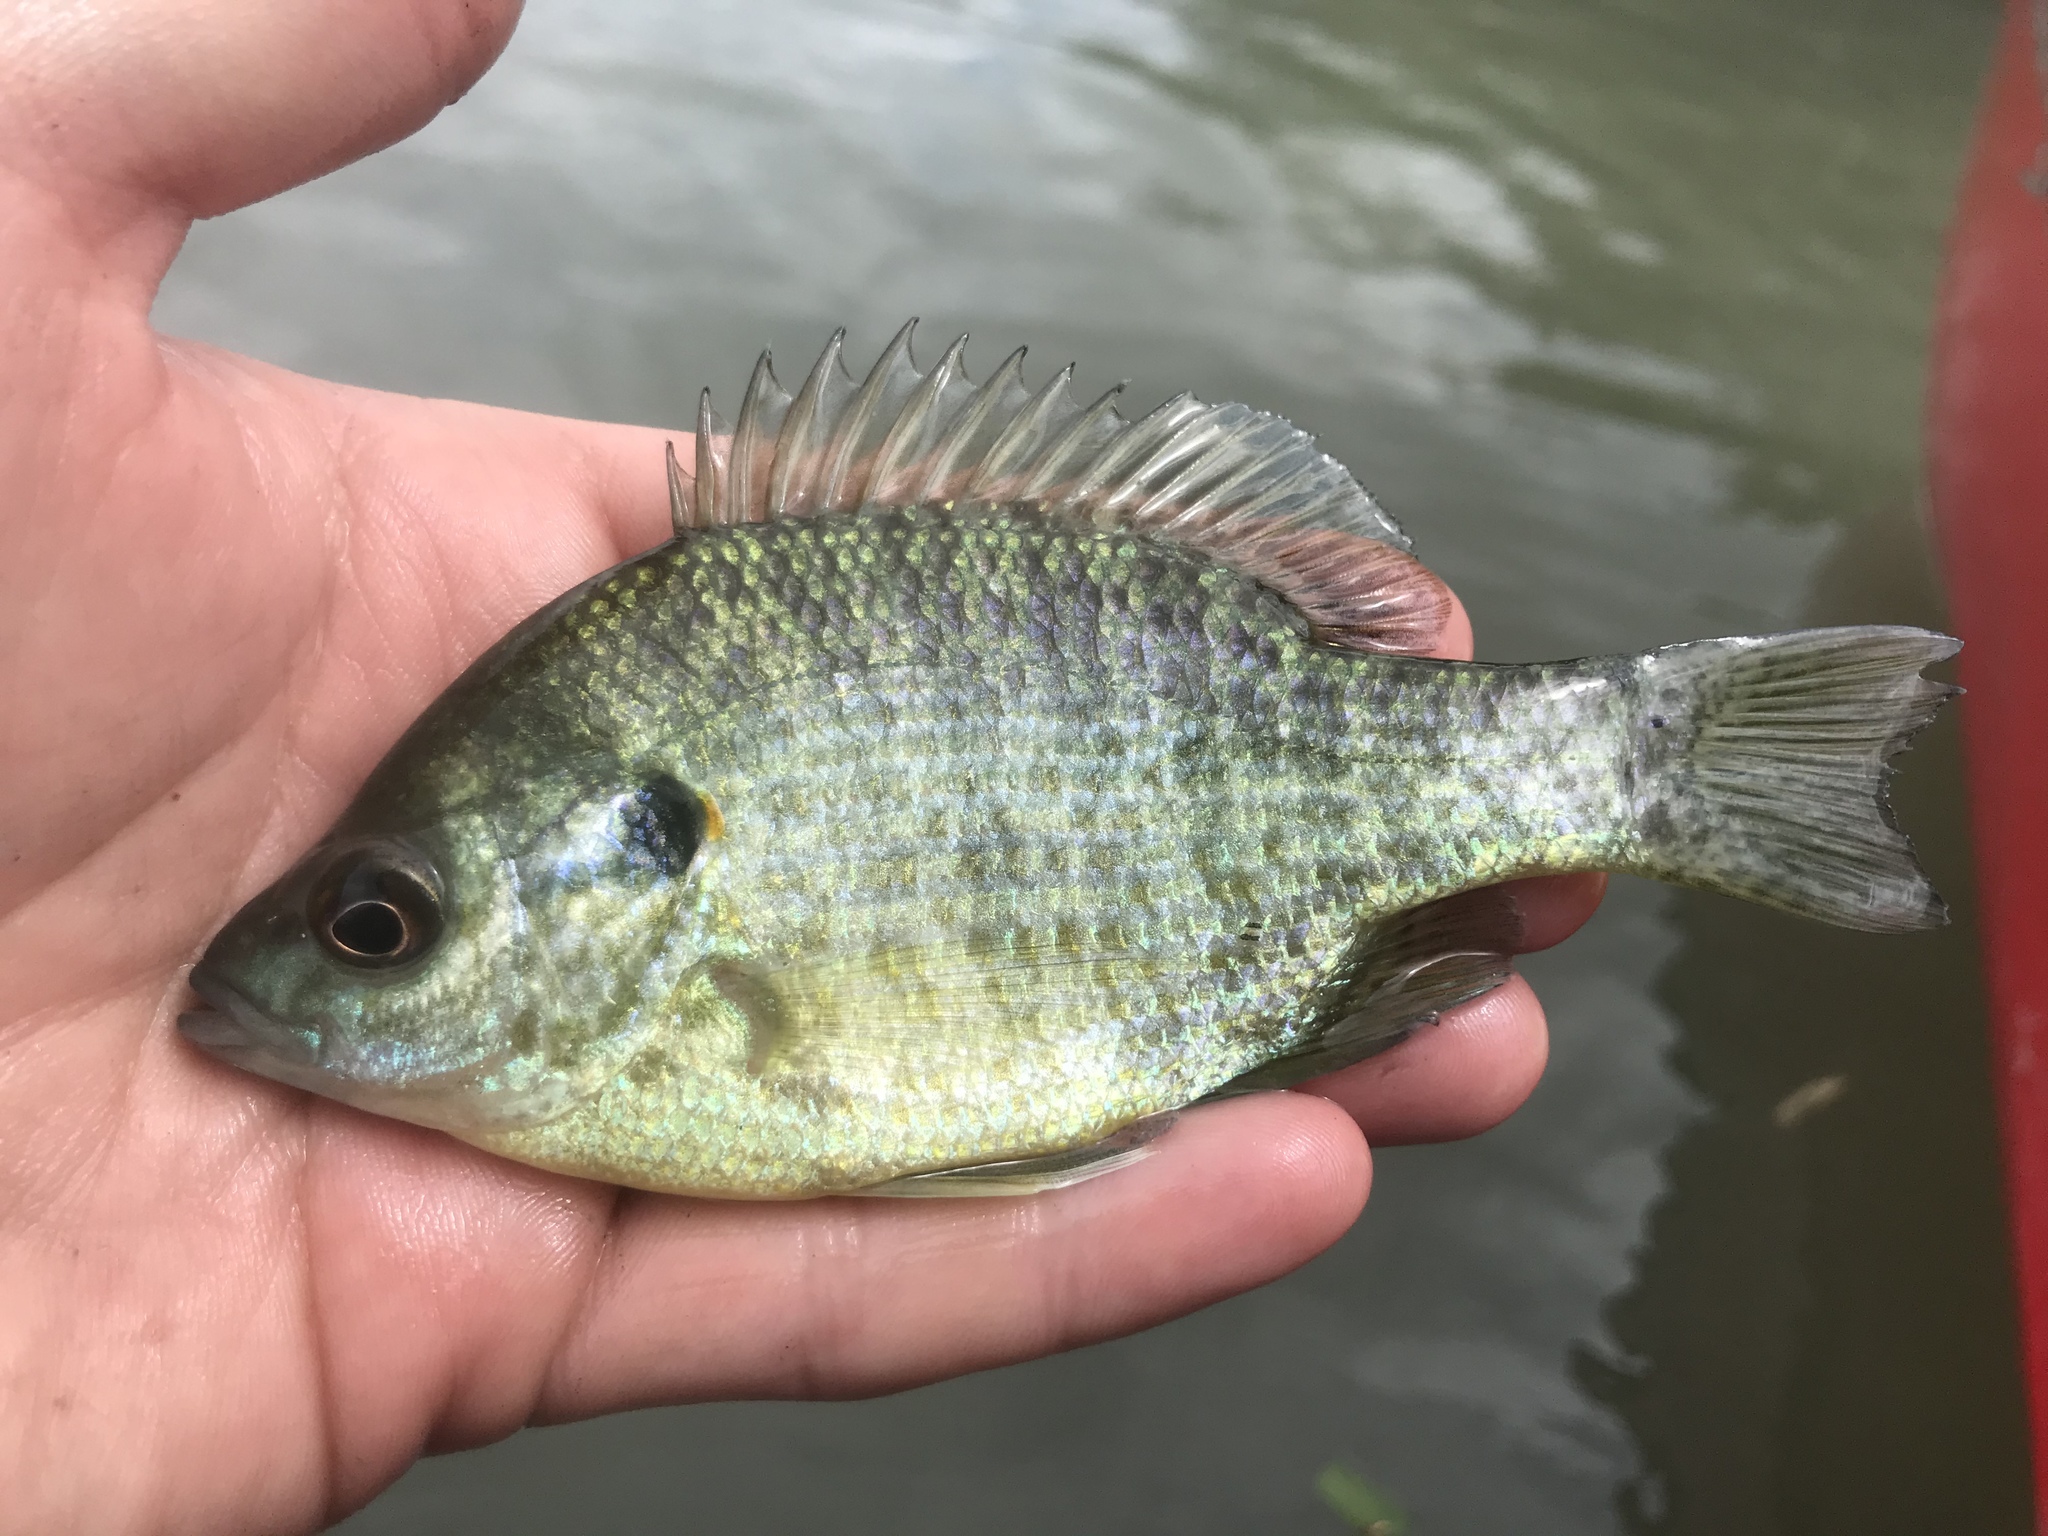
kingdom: Animalia
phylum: Chordata
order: Perciformes
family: Centrarchidae
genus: Lepomis
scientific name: Lepomis microlophus
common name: Redear sunfish
